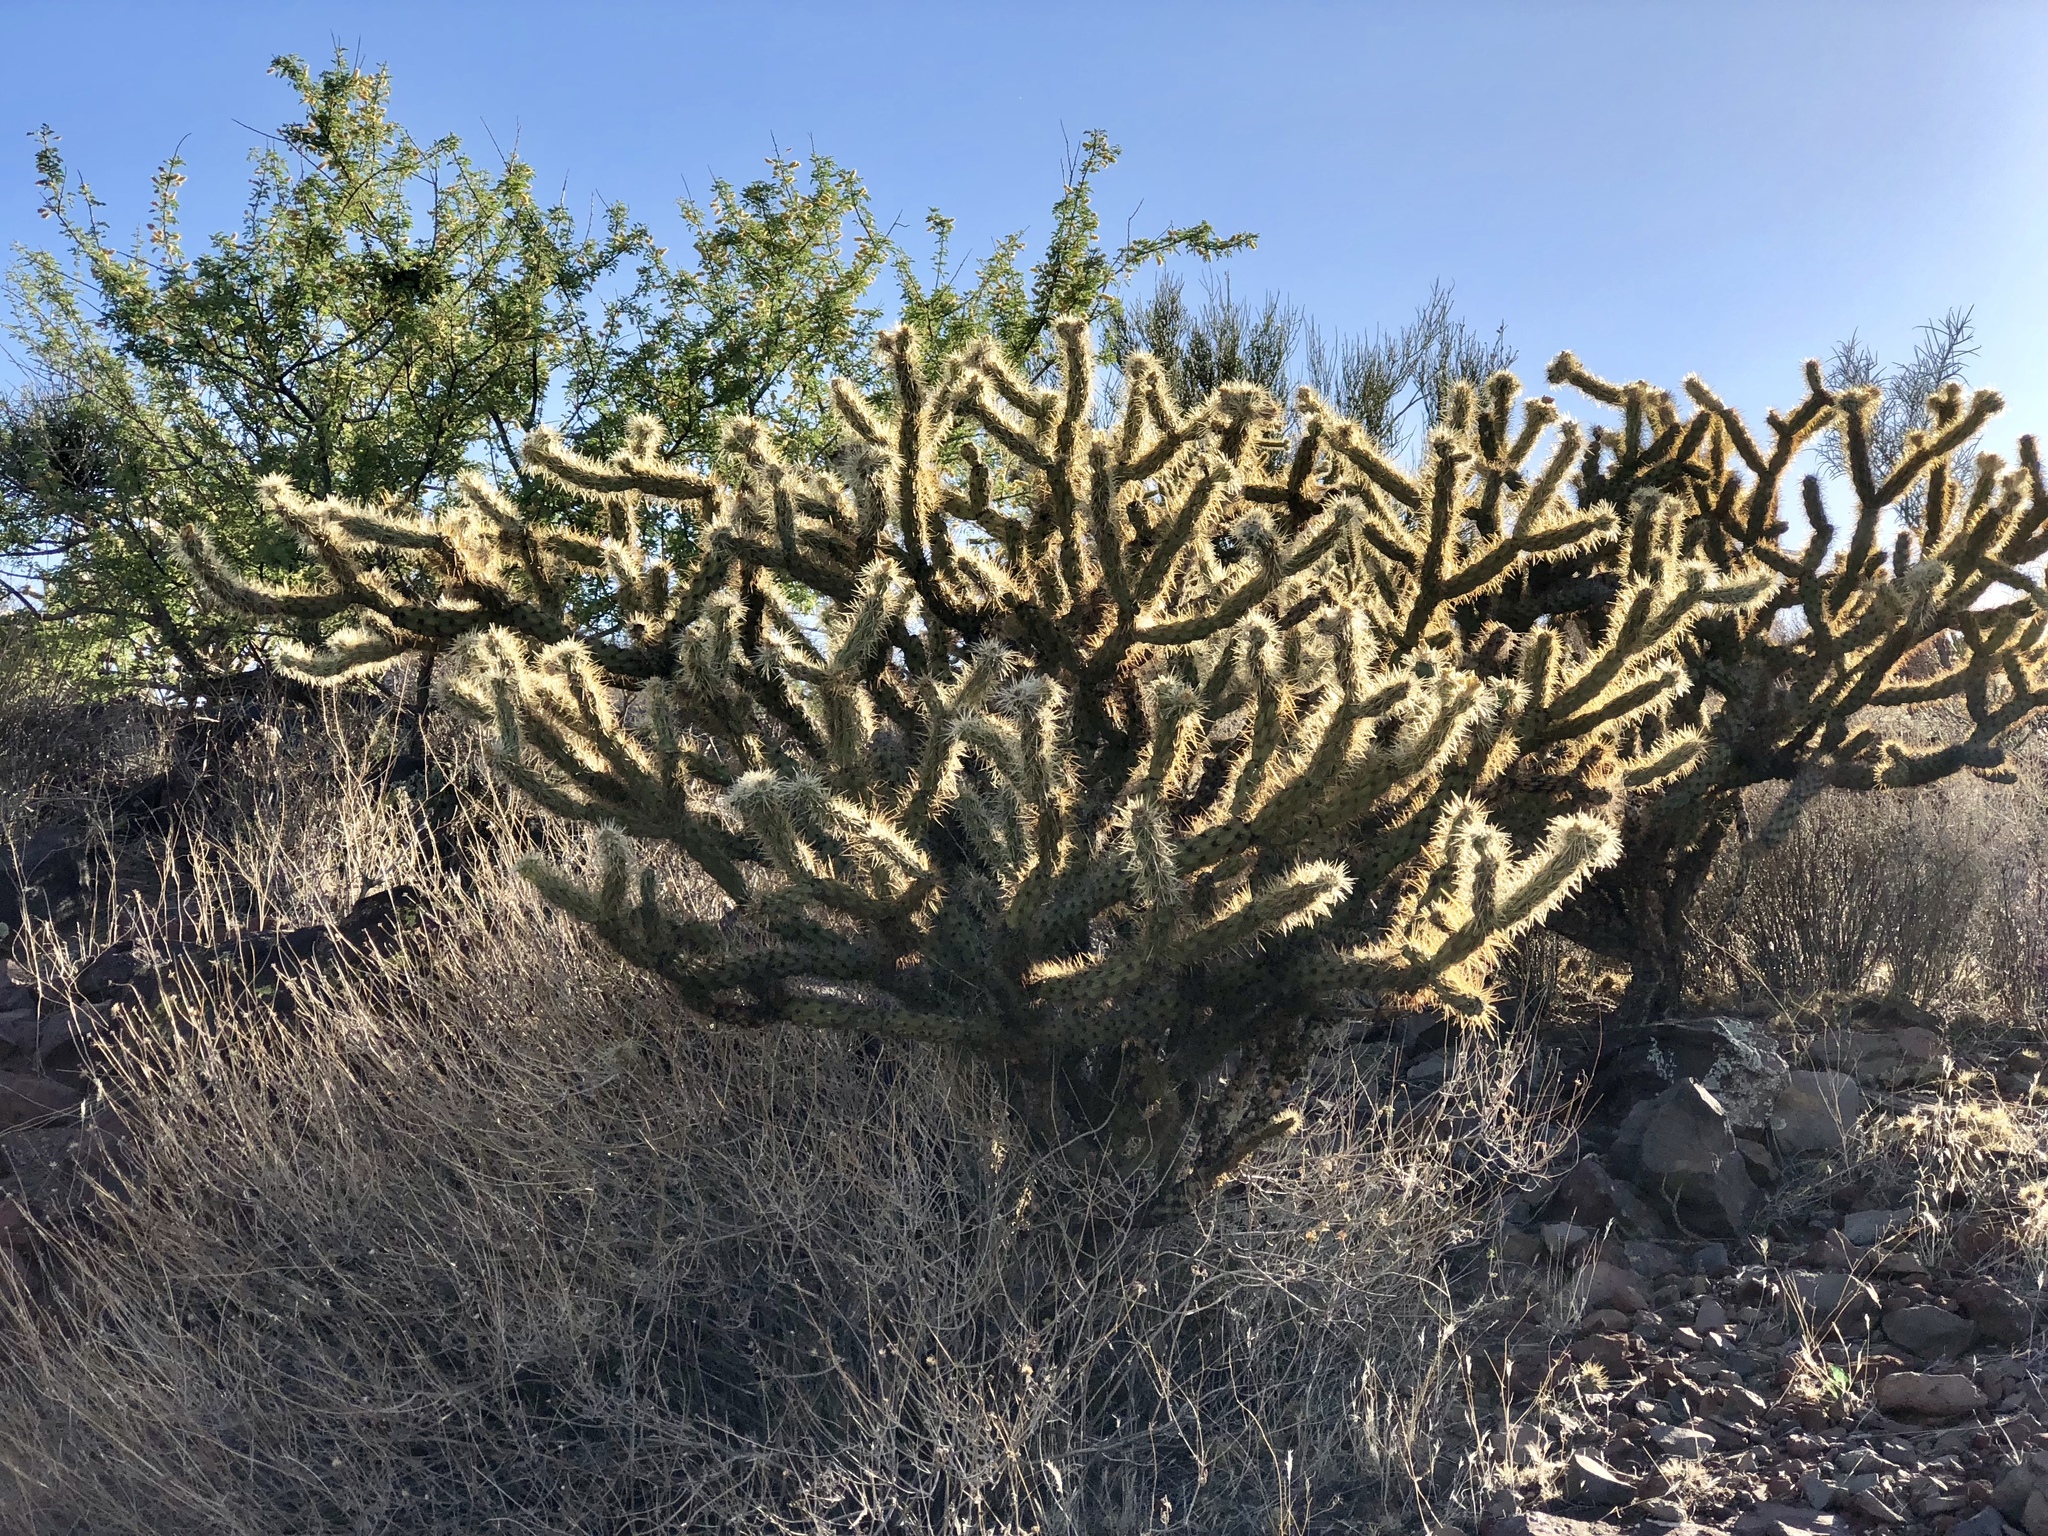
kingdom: Plantae
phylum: Tracheophyta
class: Magnoliopsida
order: Caryophyllales
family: Cactaceae
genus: Cylindropuntia
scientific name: Cylindropuntia acanthocarpa
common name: Buckhorn cholla
